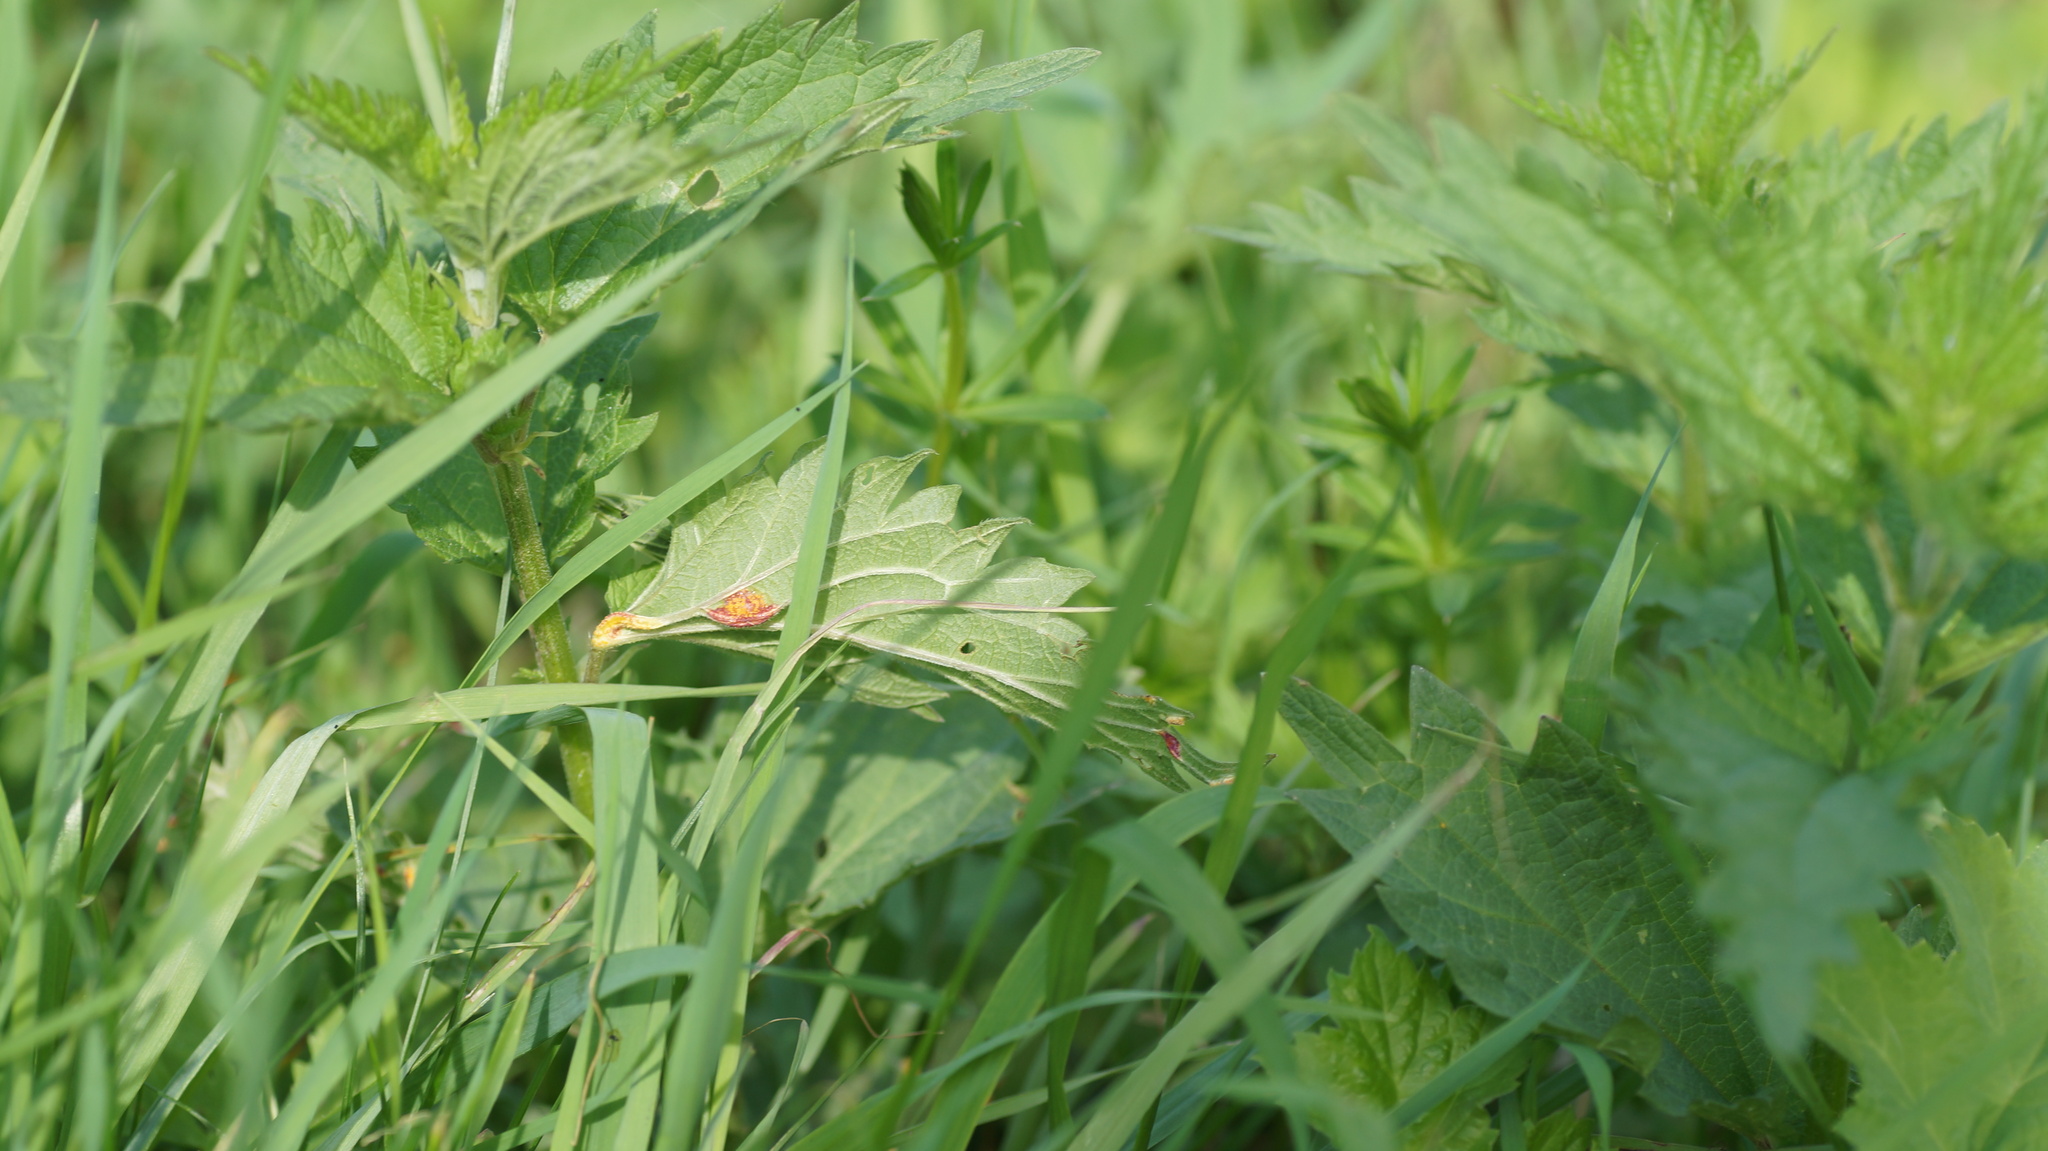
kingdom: Fungi
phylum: Basidiomycota
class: Pucciniomycetes
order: Pucciniales
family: Pucciniaceae
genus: Puccinia
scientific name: Puccinia urticata
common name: Nettle clustercup rust fungus
